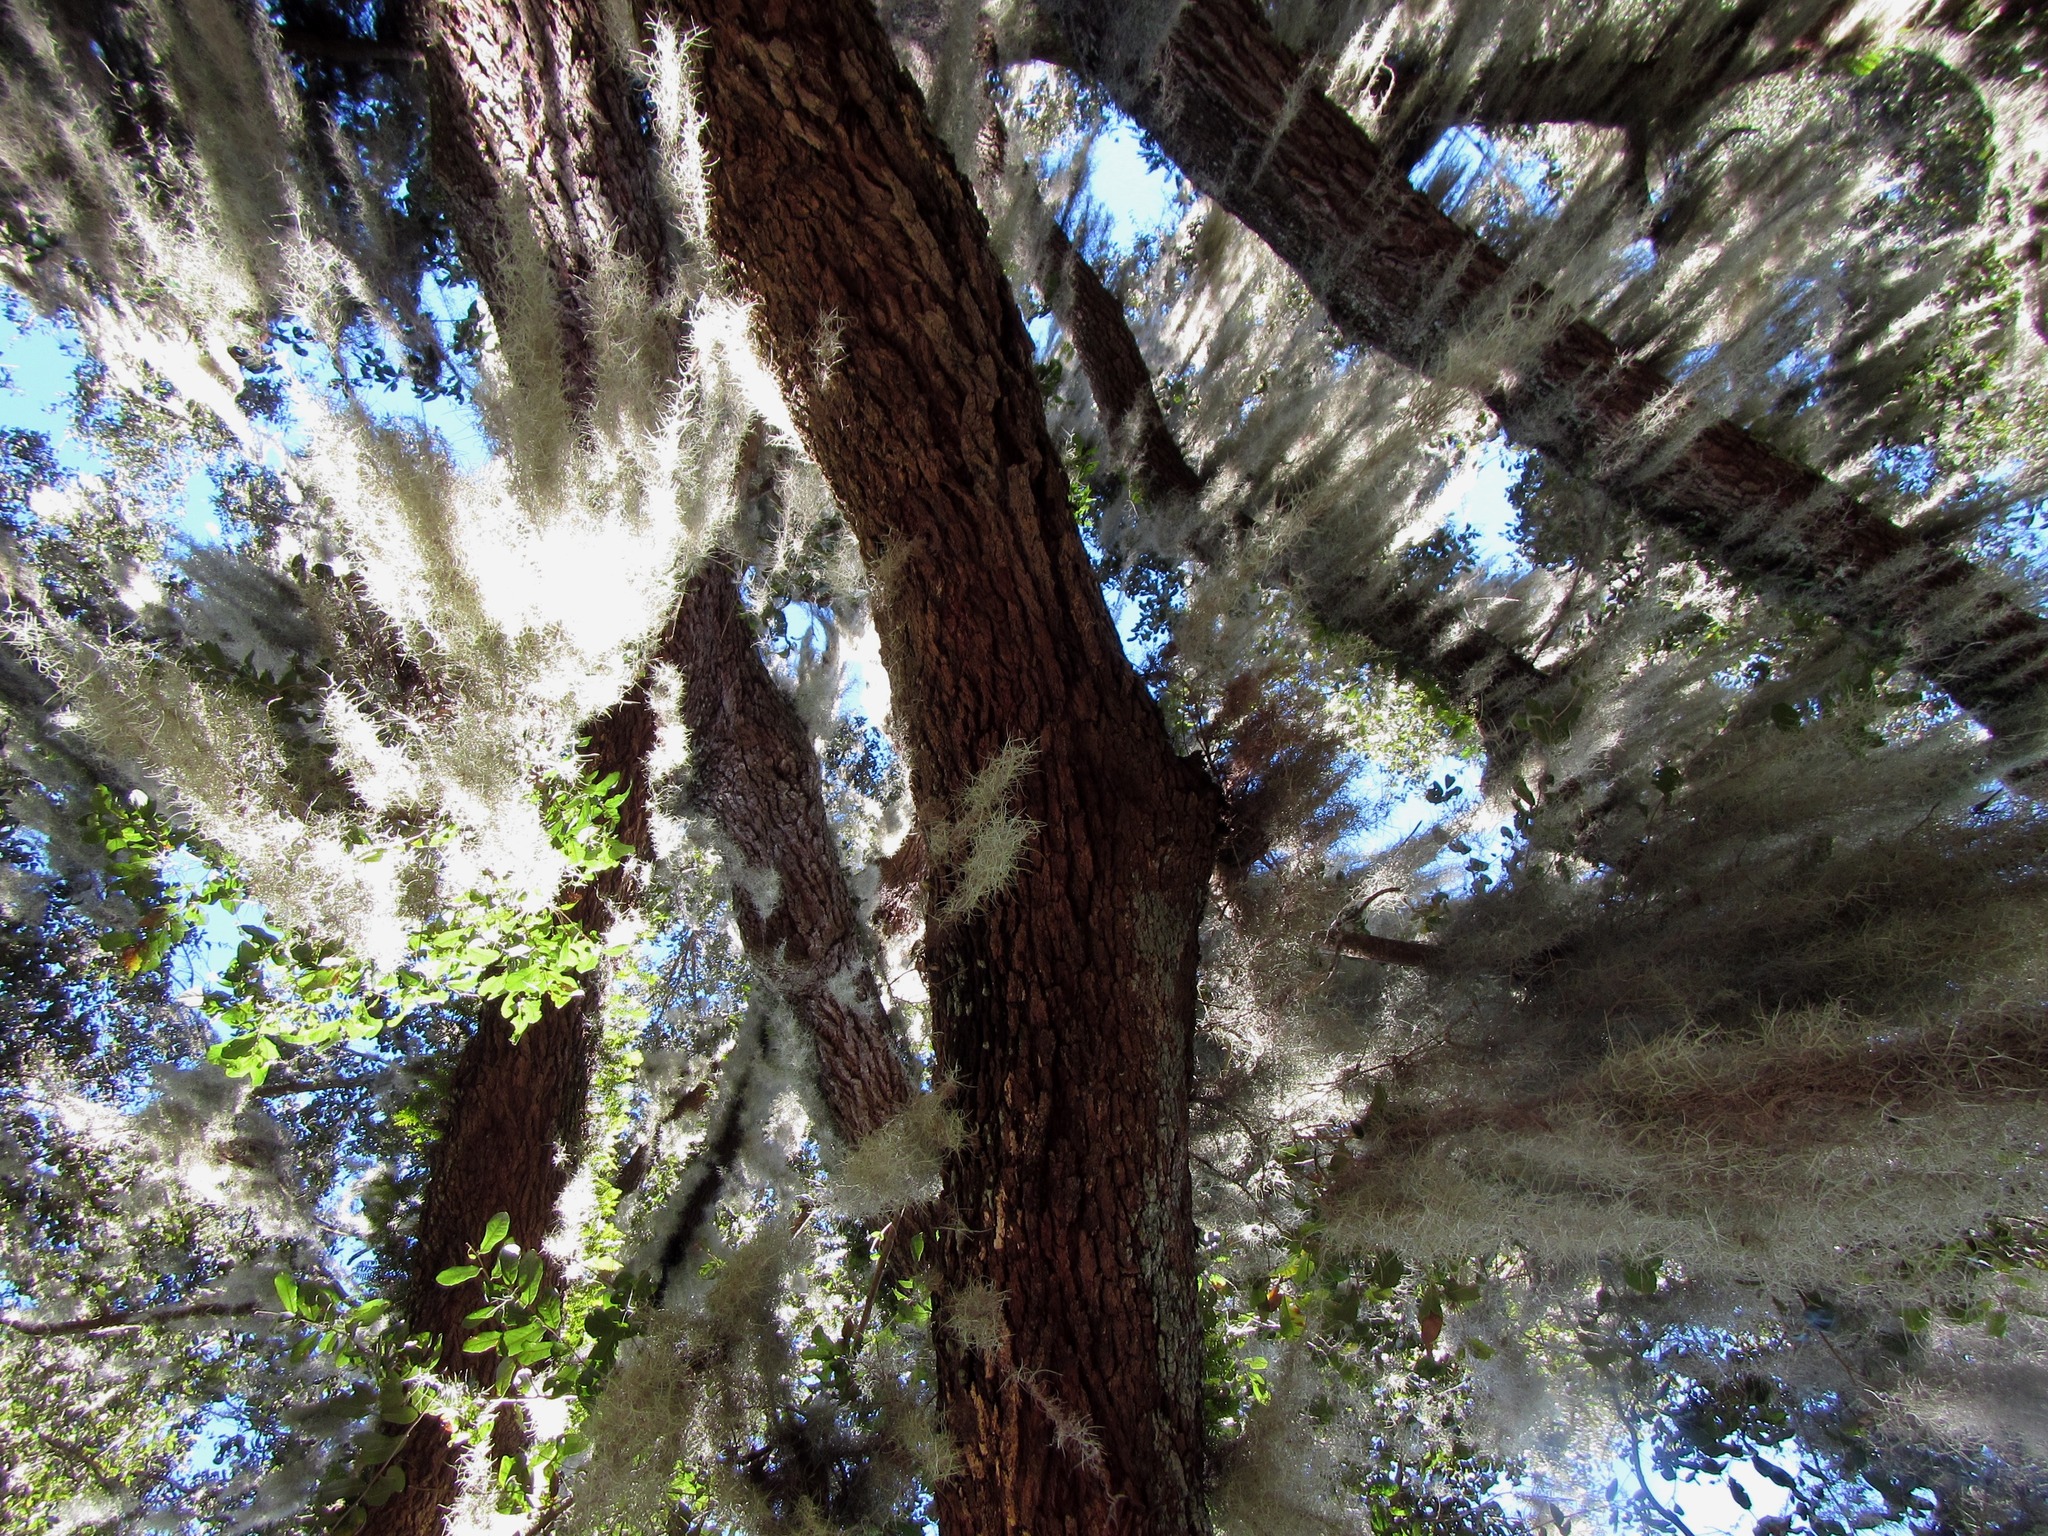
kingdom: Plantae
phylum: Tracheophyta
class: Liliopsida
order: Poales
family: Bromeliaceae
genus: Tillandsia
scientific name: Tillandsia usneoides
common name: Spanish moss
